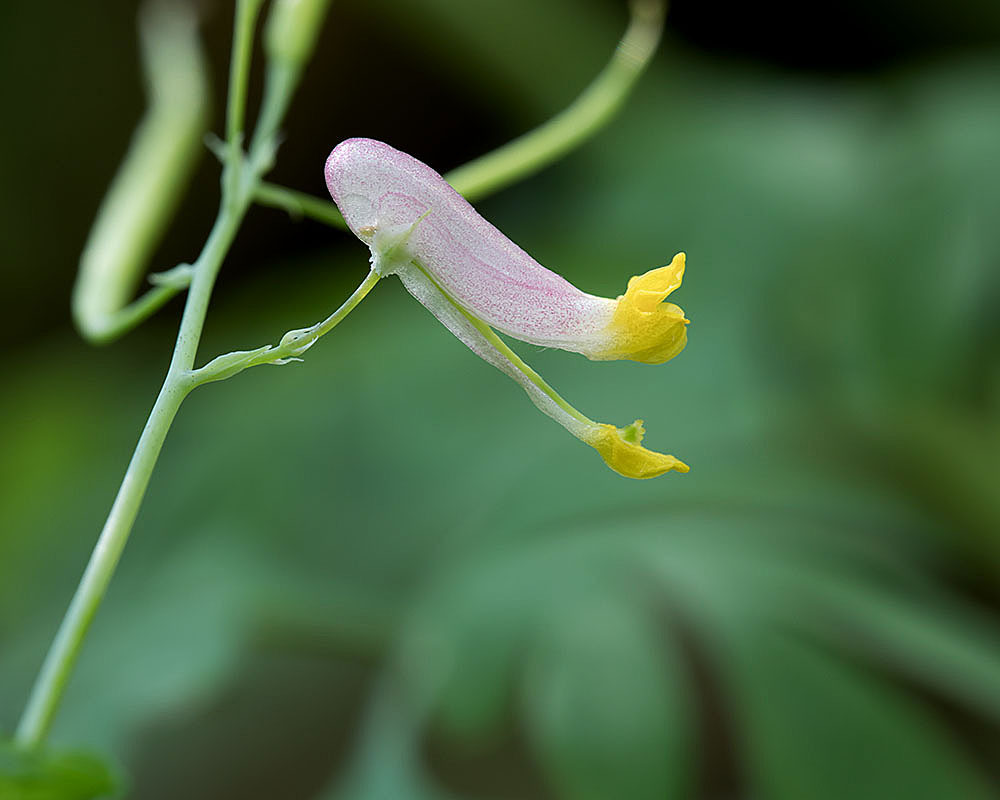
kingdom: Plantae
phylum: Tracheophyta
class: Magnoliopsida
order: Ranunculales
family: Papaveraceae
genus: Capnoides
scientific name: Capnoides sempervirens
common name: Rock harlequin
